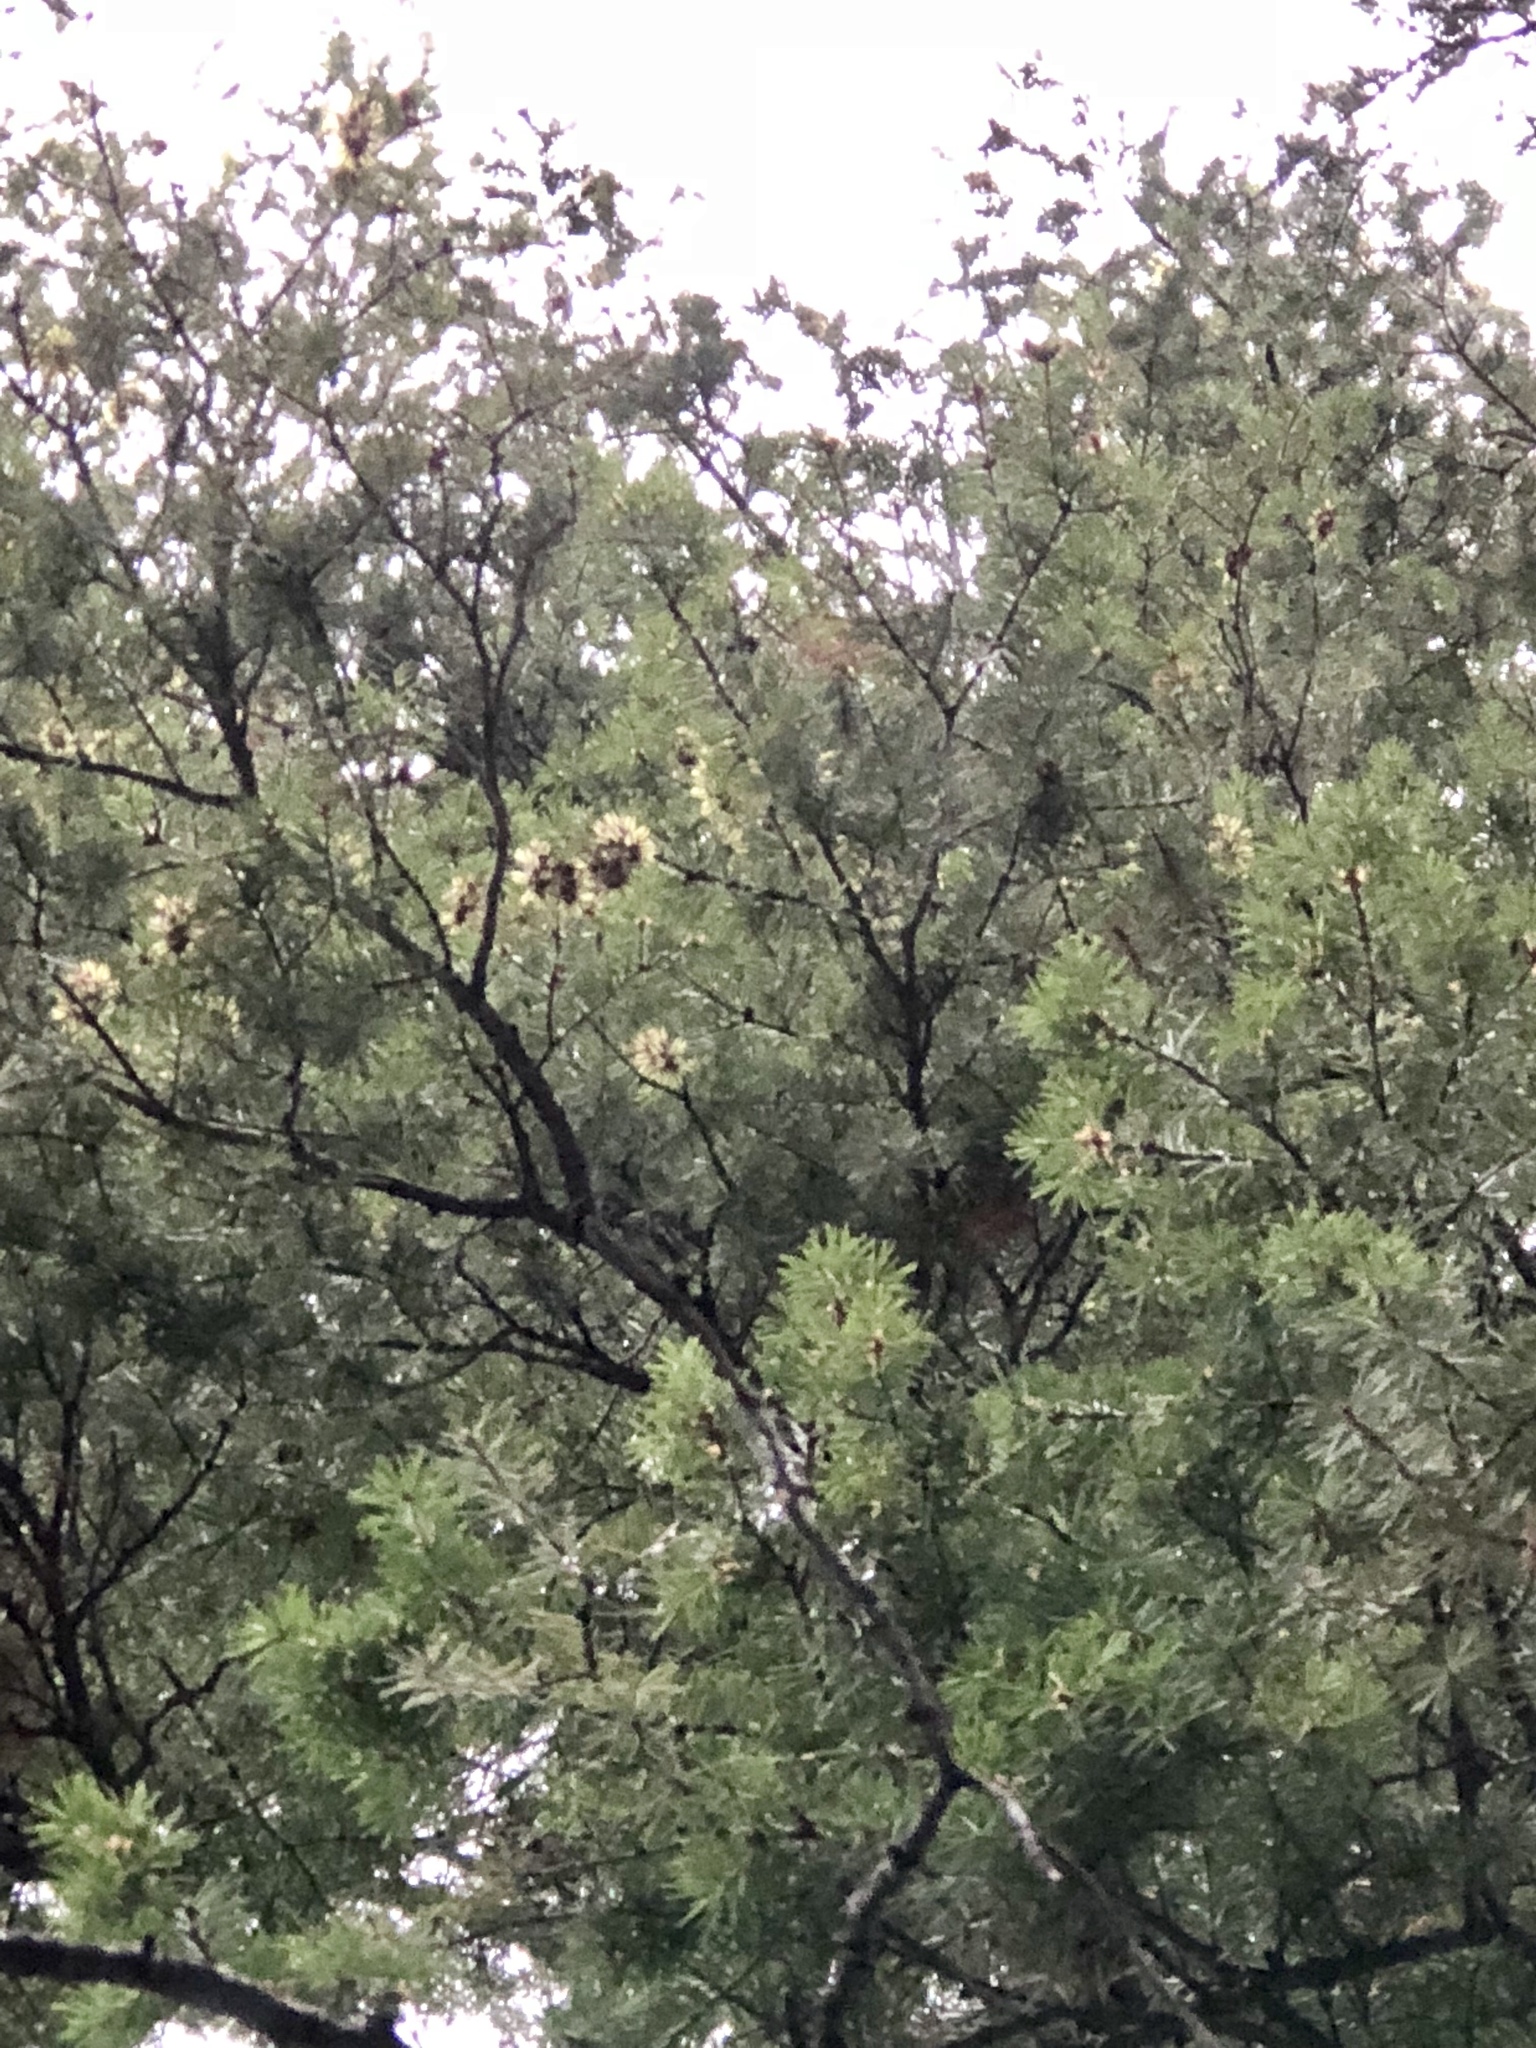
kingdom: Plantae
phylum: Tracheophyta
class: Pinopsida
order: Pinales
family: Pinaceae
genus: Pseudotsuga
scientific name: Pseudotsuga menziesii
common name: Douglas fir
